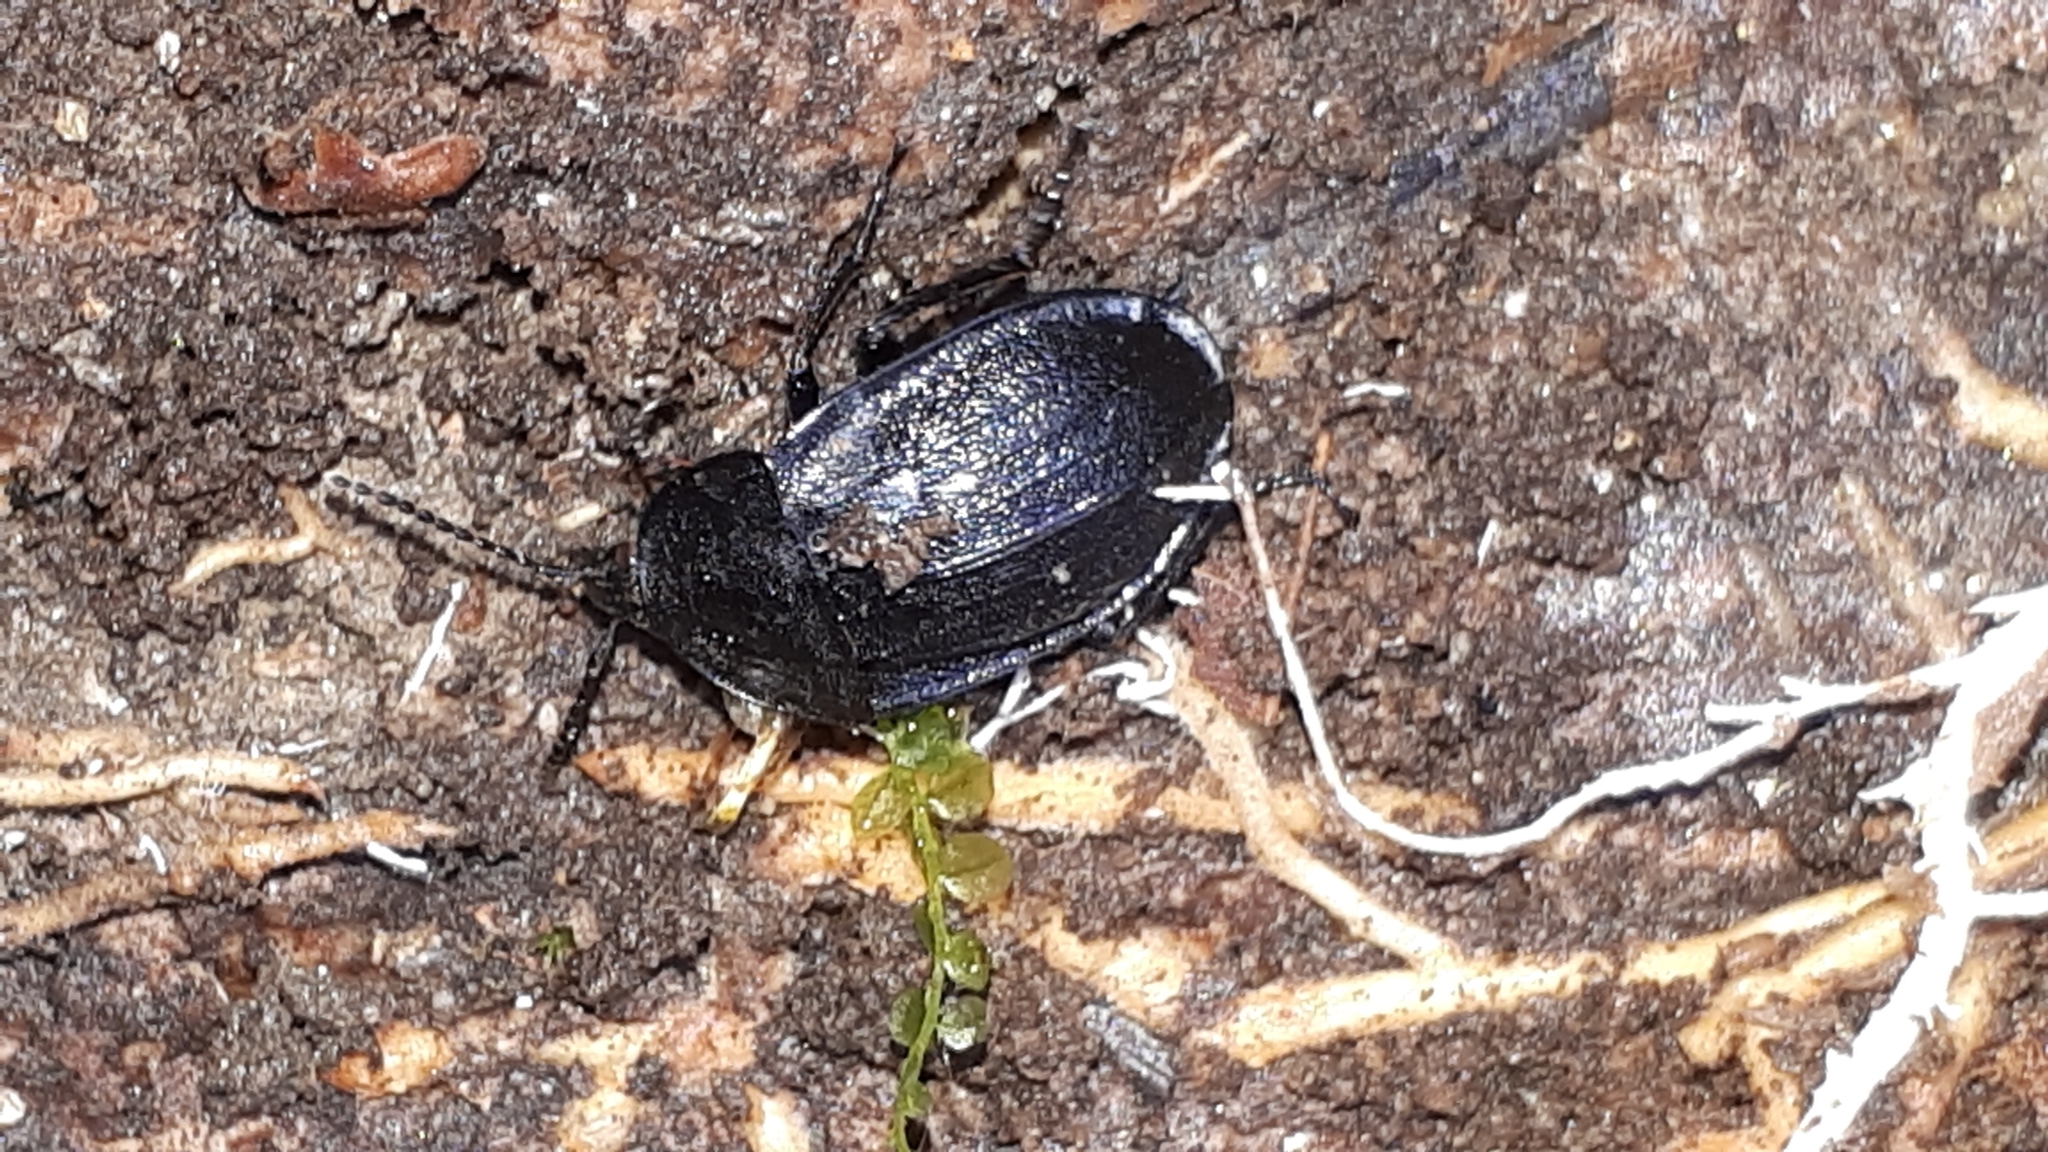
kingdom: Animalia
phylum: Arthropoda
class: Insecta
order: Coleoptera
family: Staphylinidae
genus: Silpha
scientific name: Silpha atrata
